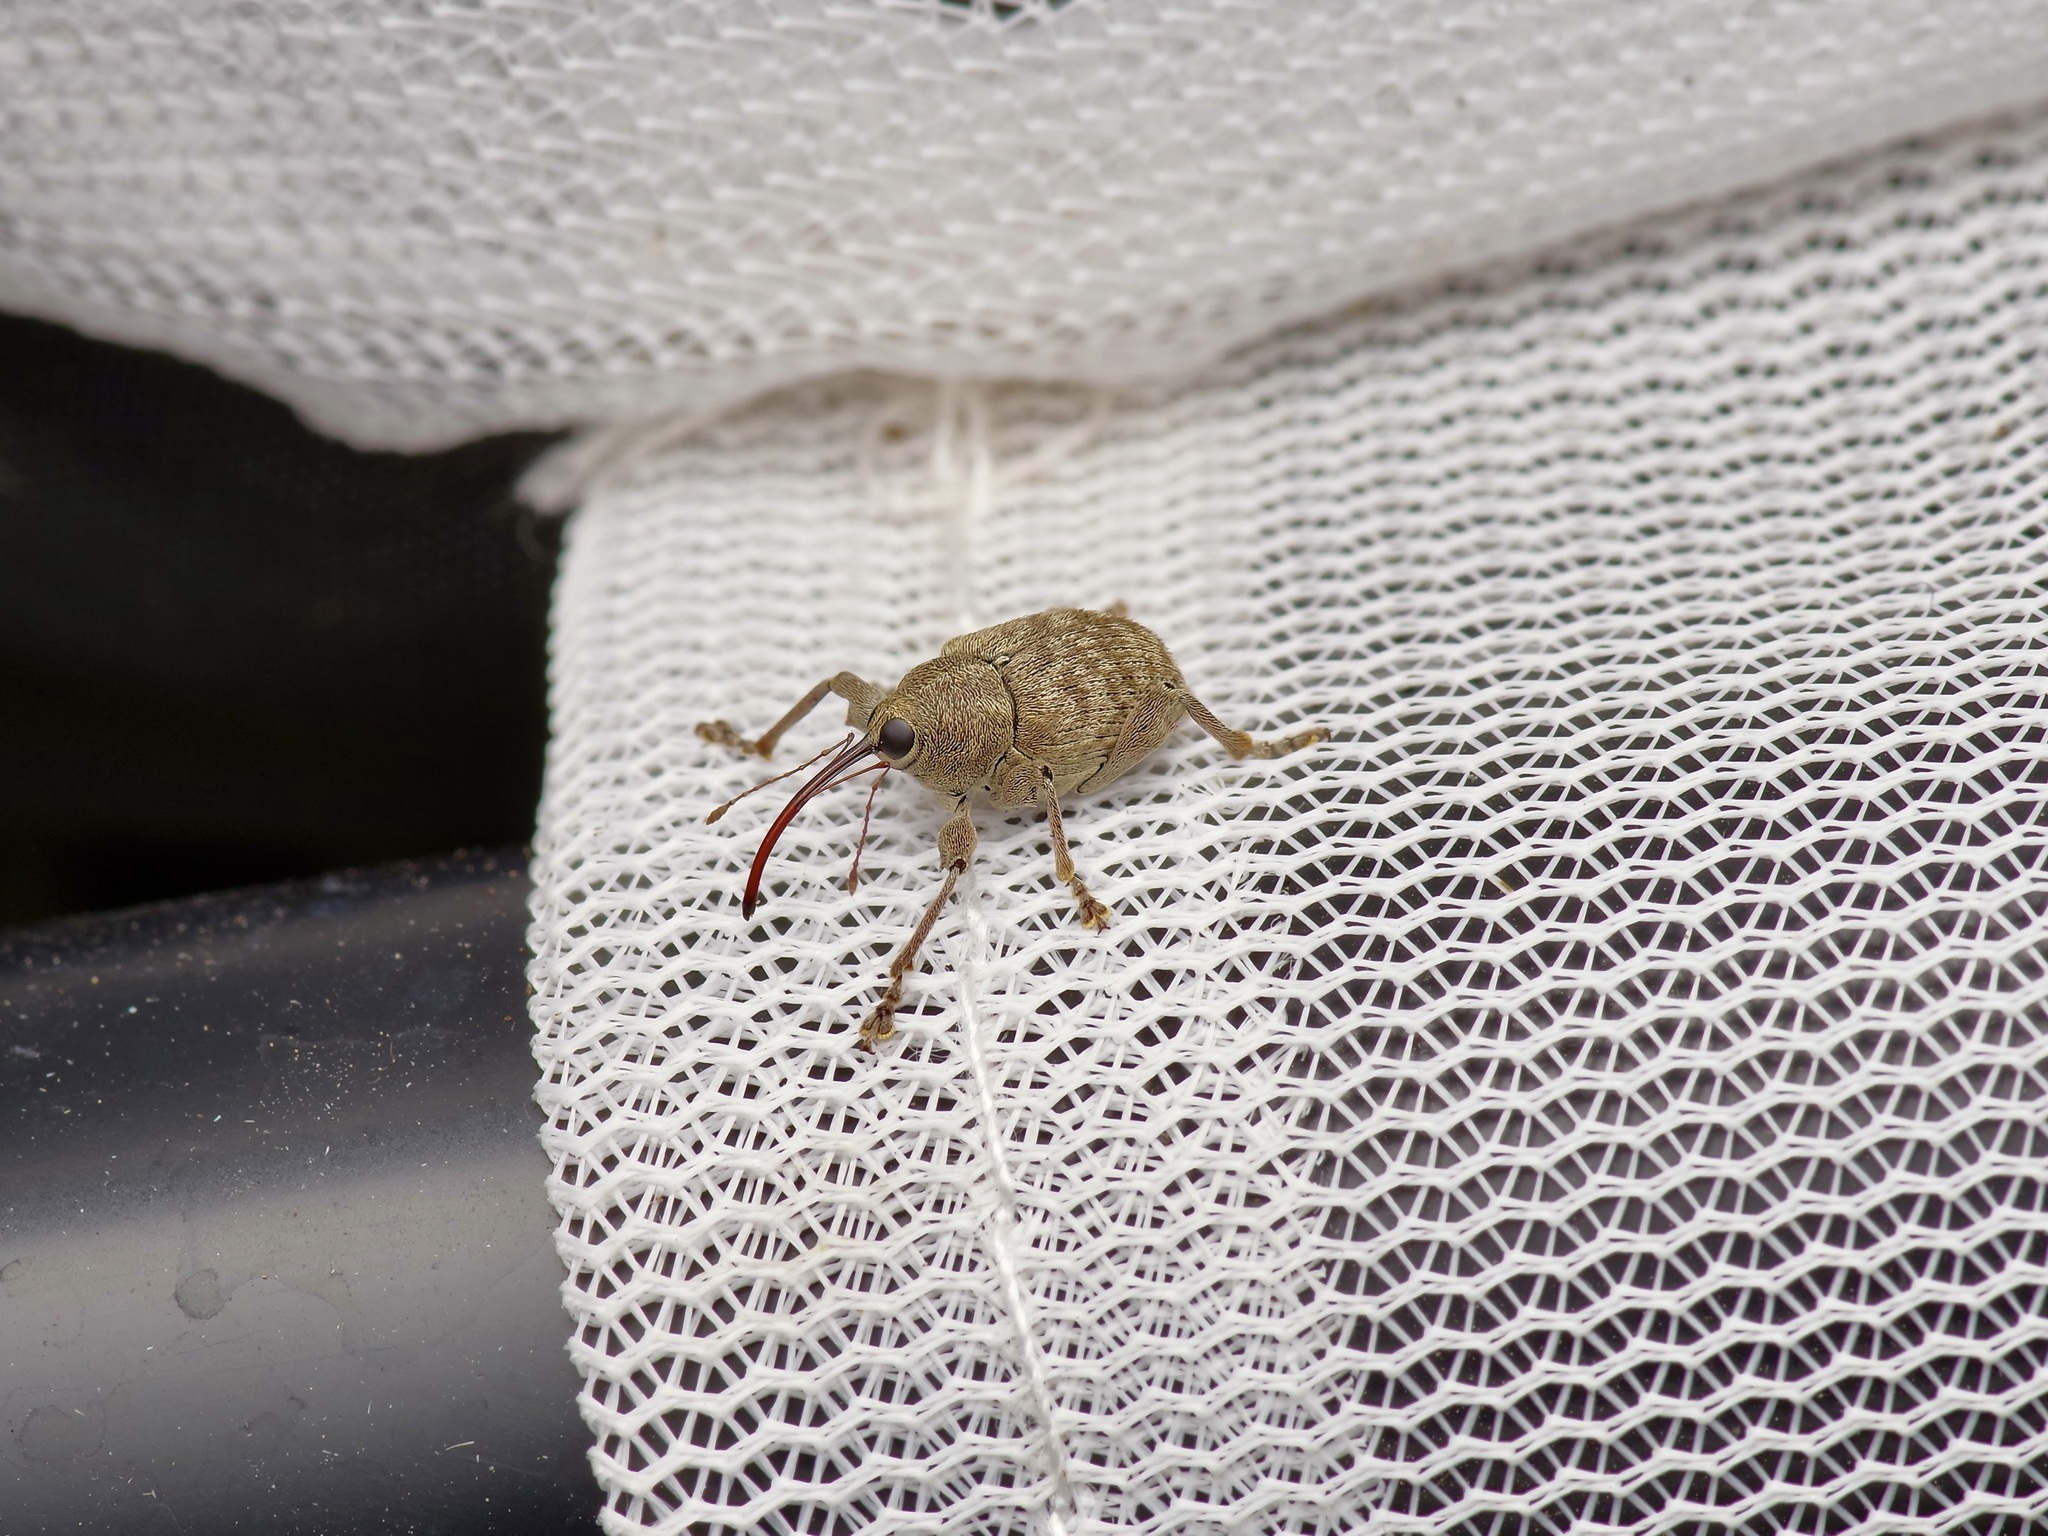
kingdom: Animalia
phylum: Arthropoda
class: Insecta
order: Coleoptera
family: Curculionidae
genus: Curculio
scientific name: Curculio
